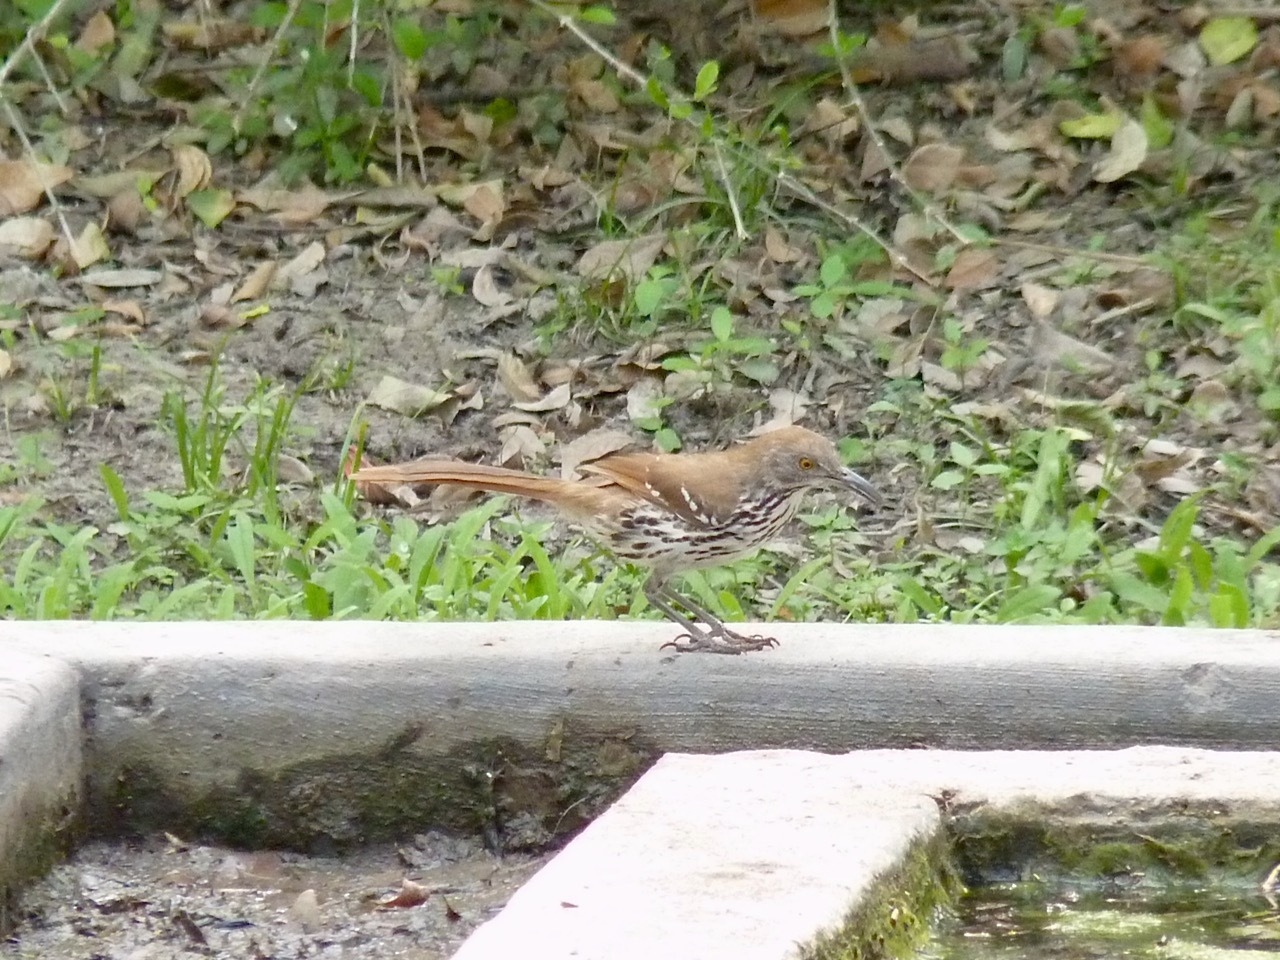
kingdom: Animalia
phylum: Chordata
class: Aves
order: Passeriformes
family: Mimidae
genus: Toxostoma
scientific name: Toxostoma longirostre
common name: Long-billed thrasher
